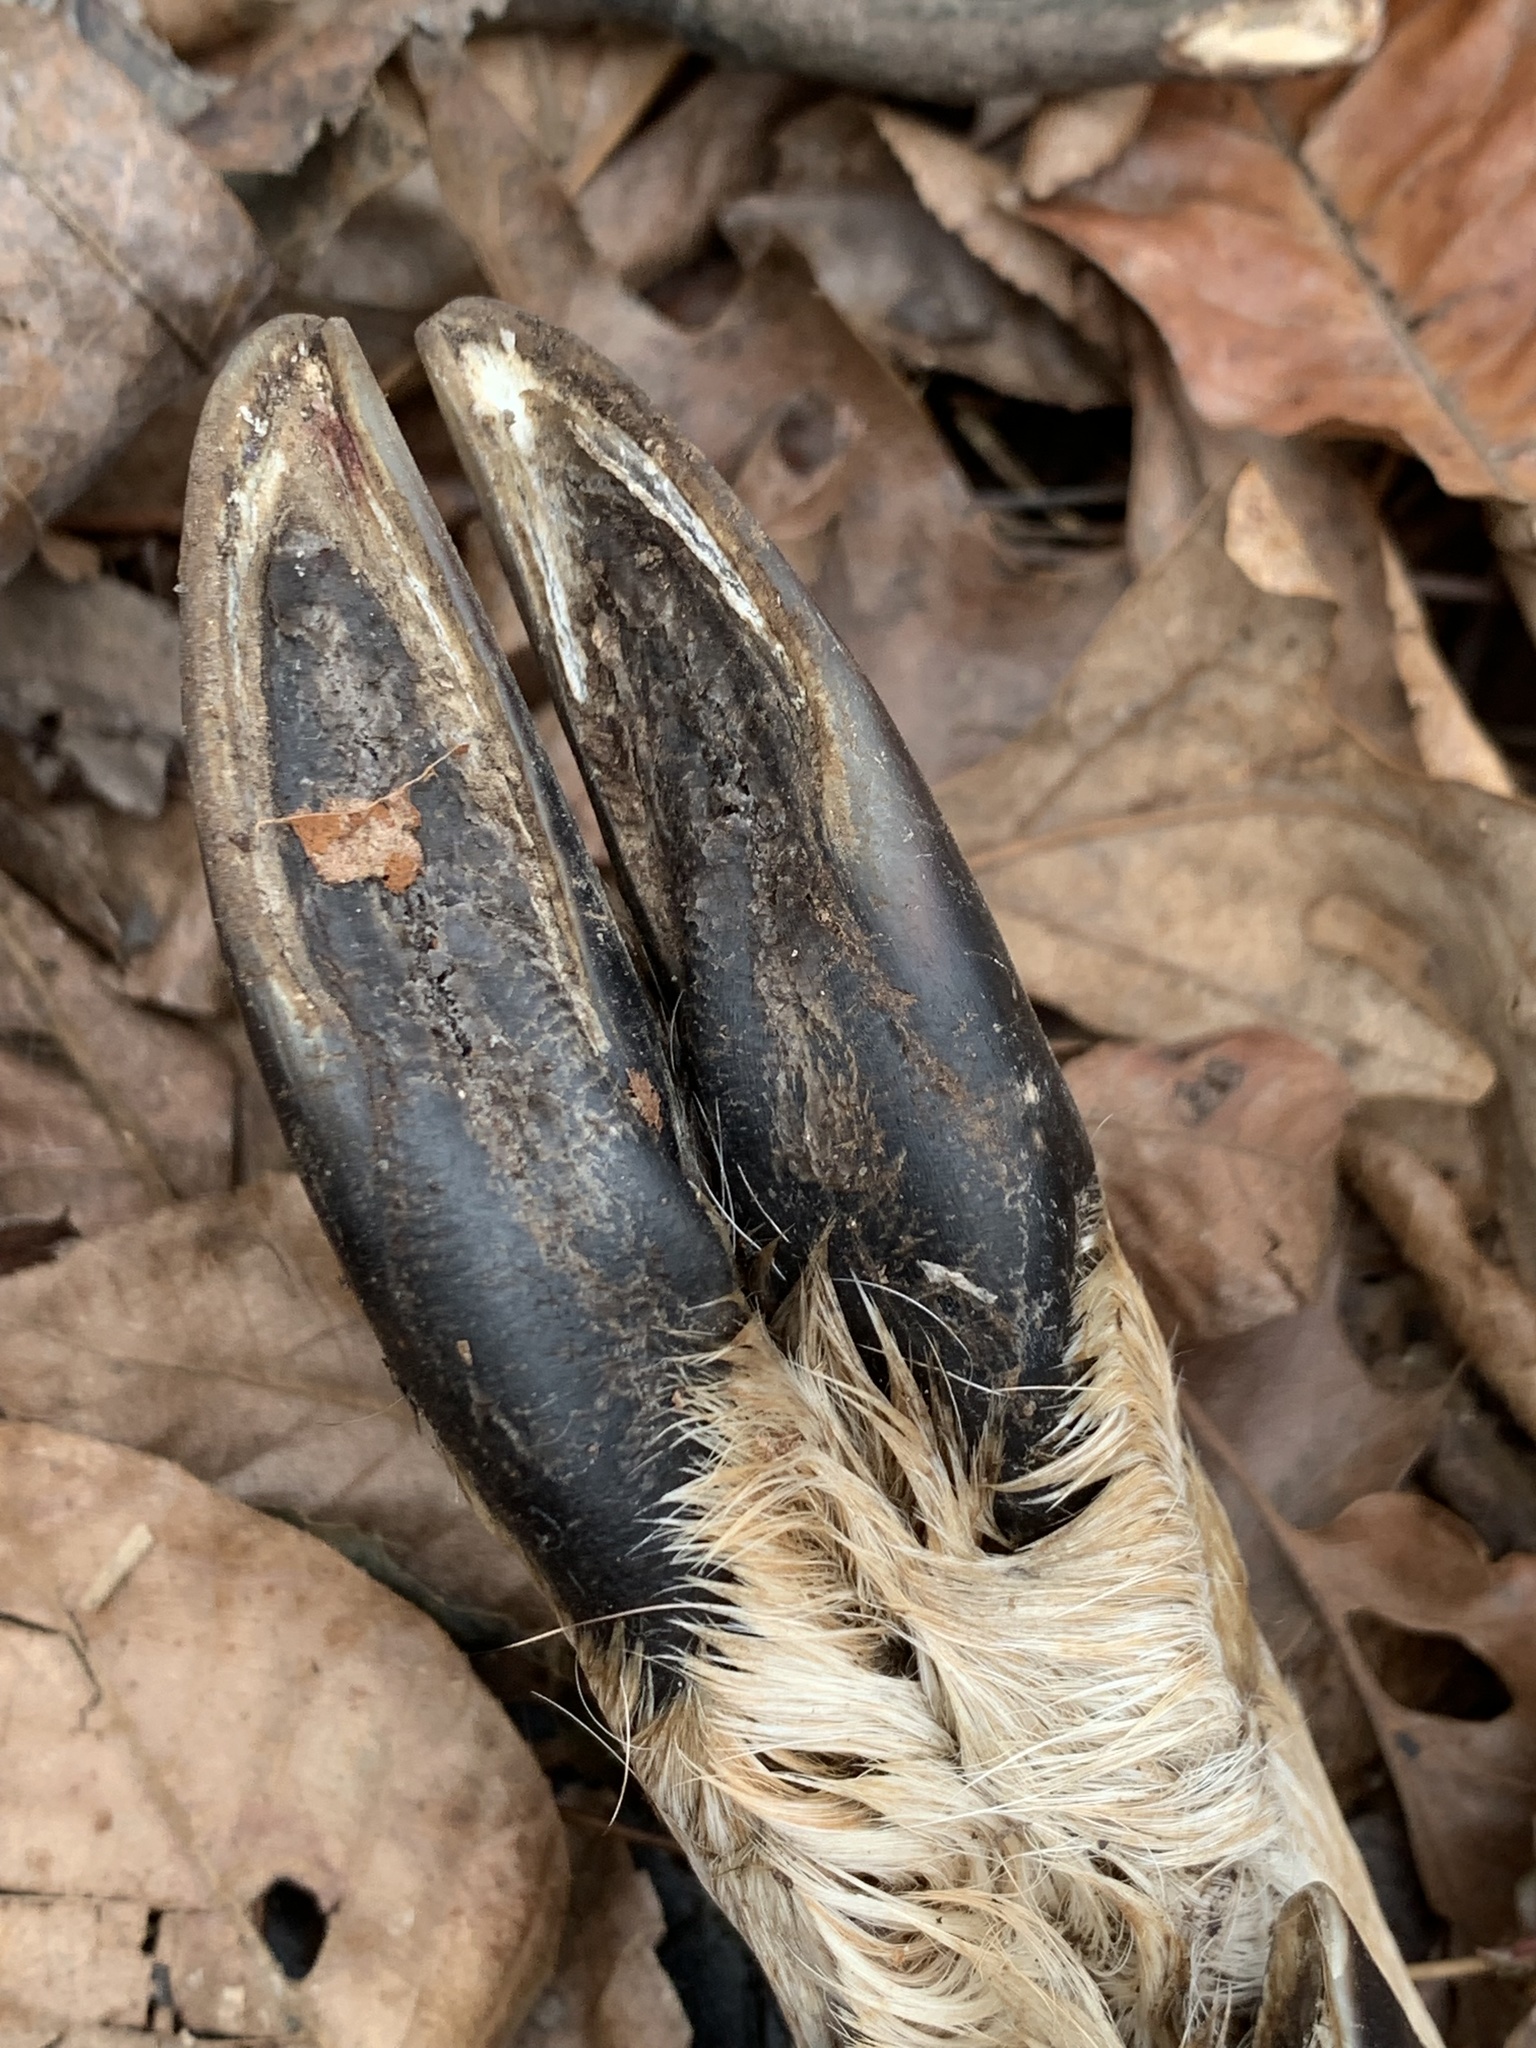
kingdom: Animalia
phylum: Chordata
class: Mammalia
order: Artiodactyla
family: Cervidae
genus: Odocoileus
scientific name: Odocoileus virginianus
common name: White-tailed deer
